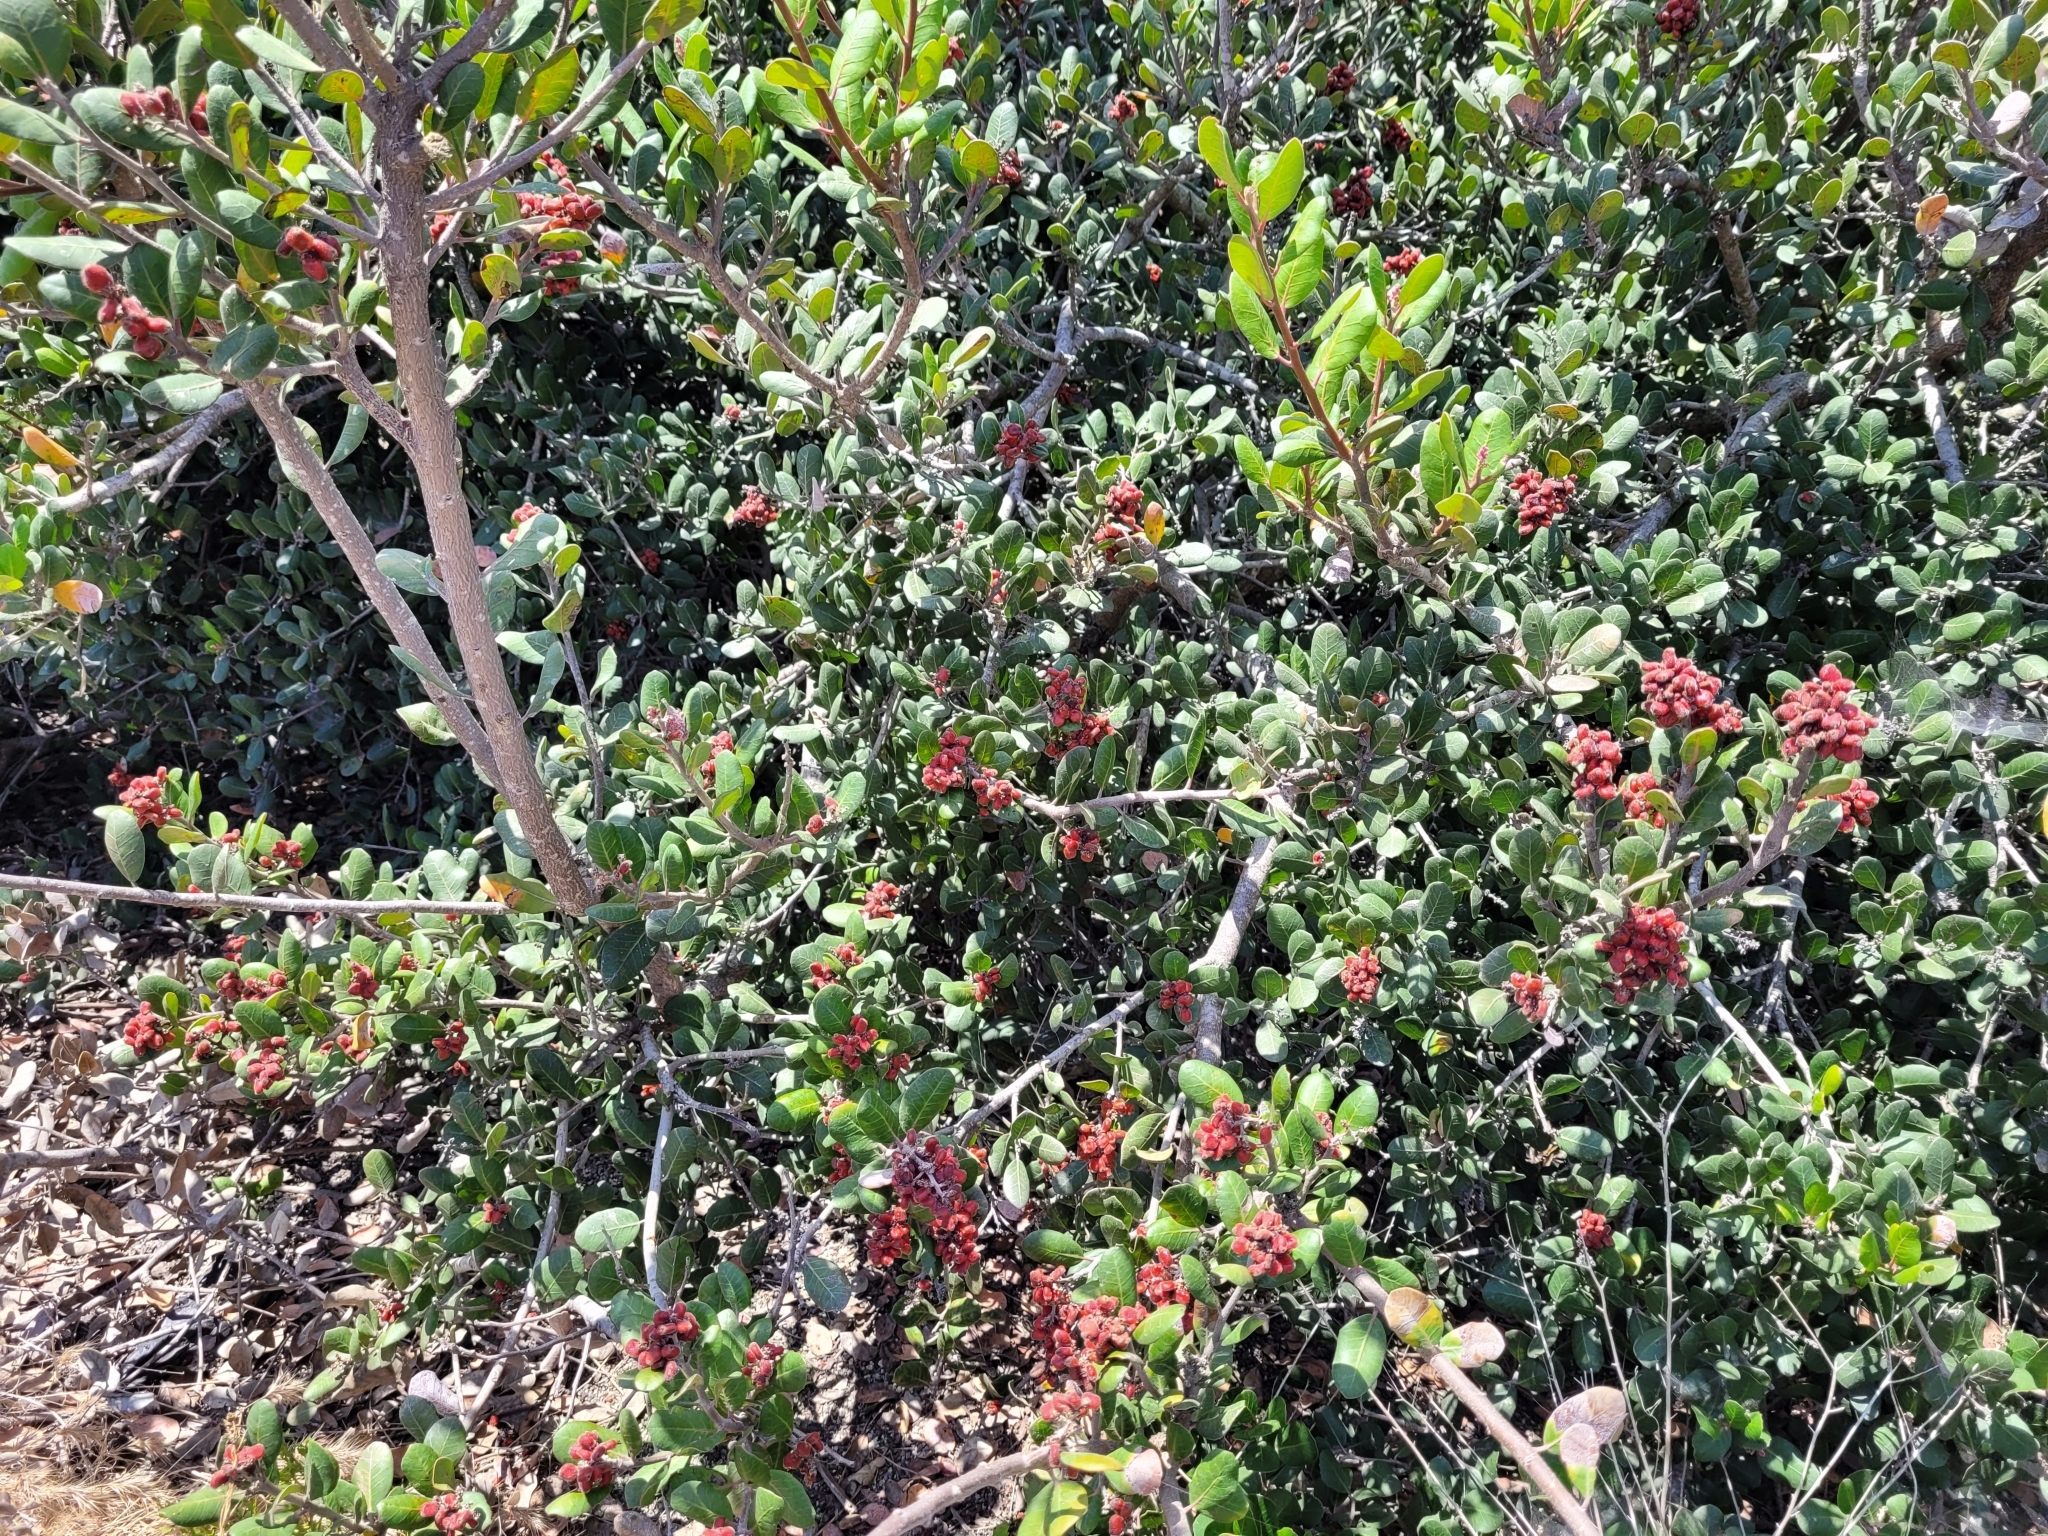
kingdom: Plantae
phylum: Tracheophyta
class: Magnoliopsida
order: Sapindales
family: Anacardiaceae
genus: Rhus
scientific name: Rhus integrifolia
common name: Lemonade sumac
